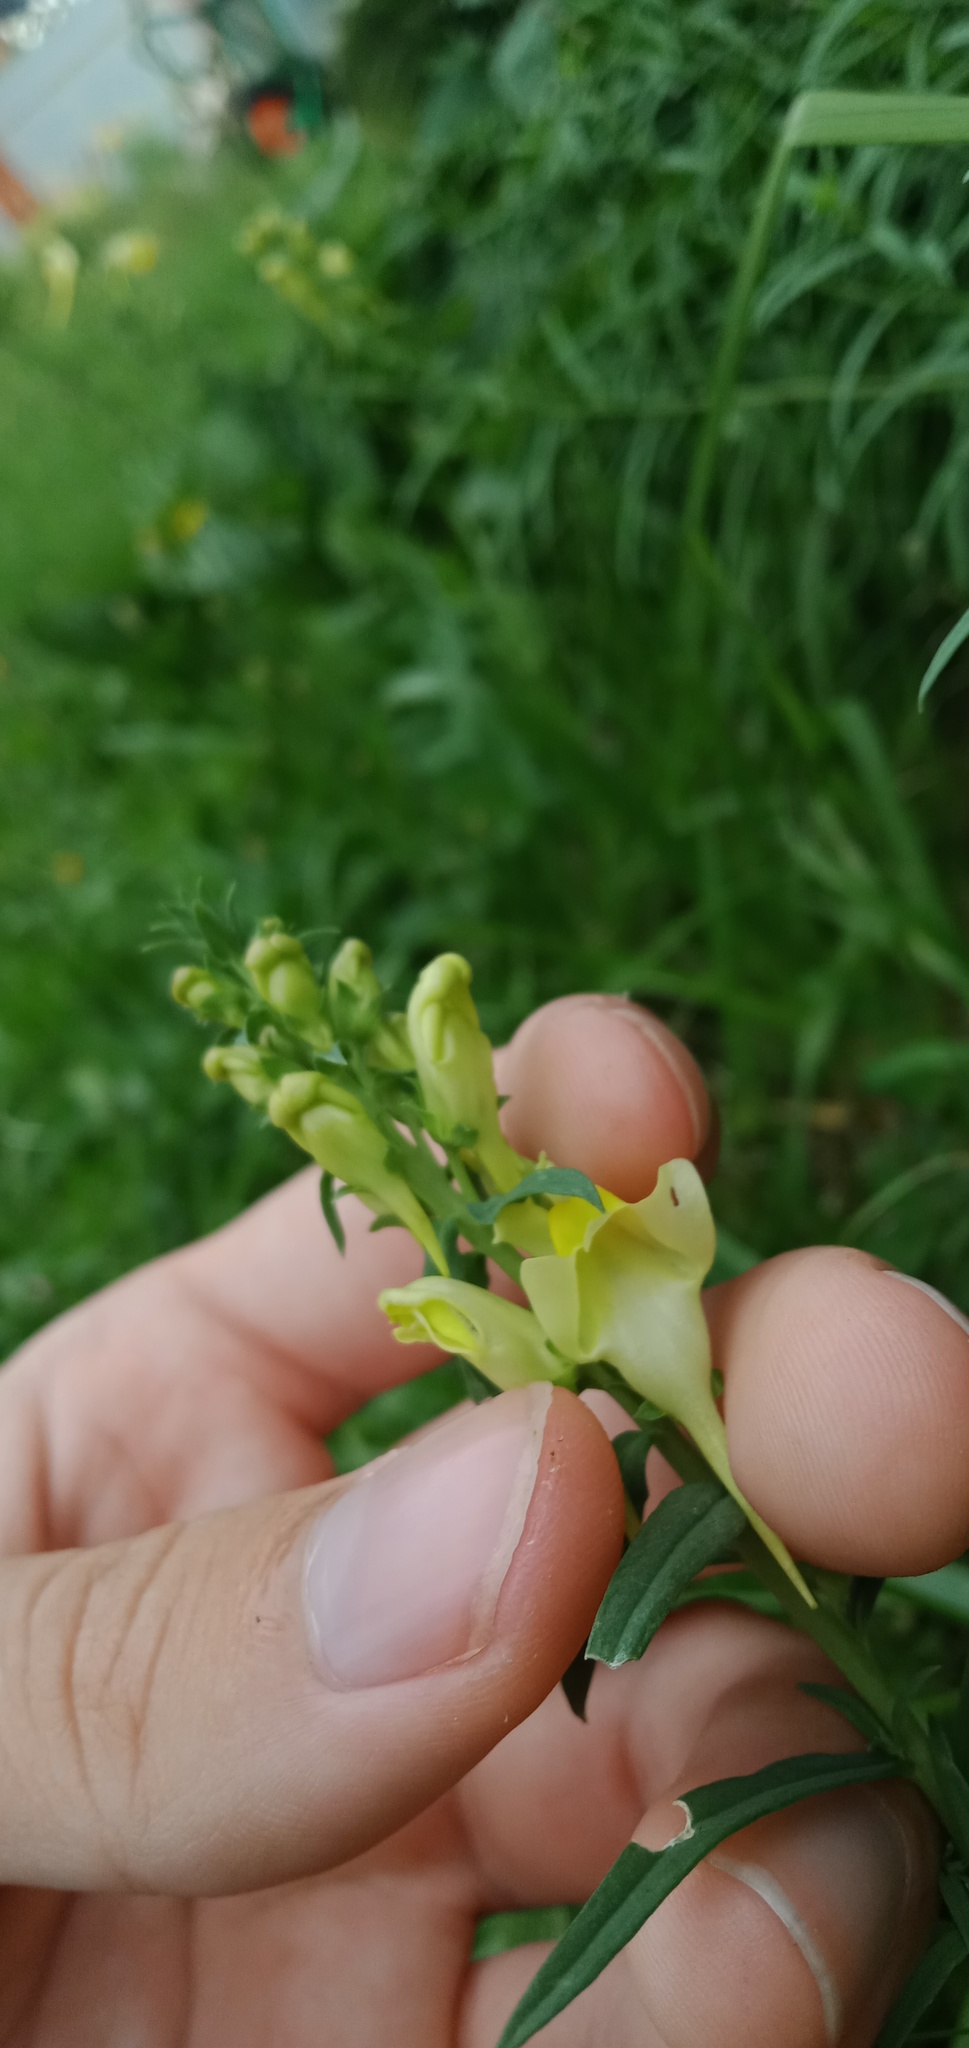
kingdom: Plantae
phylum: Tracheophyta
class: Magnoliopsida
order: Lamiales
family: Plantaginaceae
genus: Linaria
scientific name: Linaria vulgaris
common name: Butter and eggs
